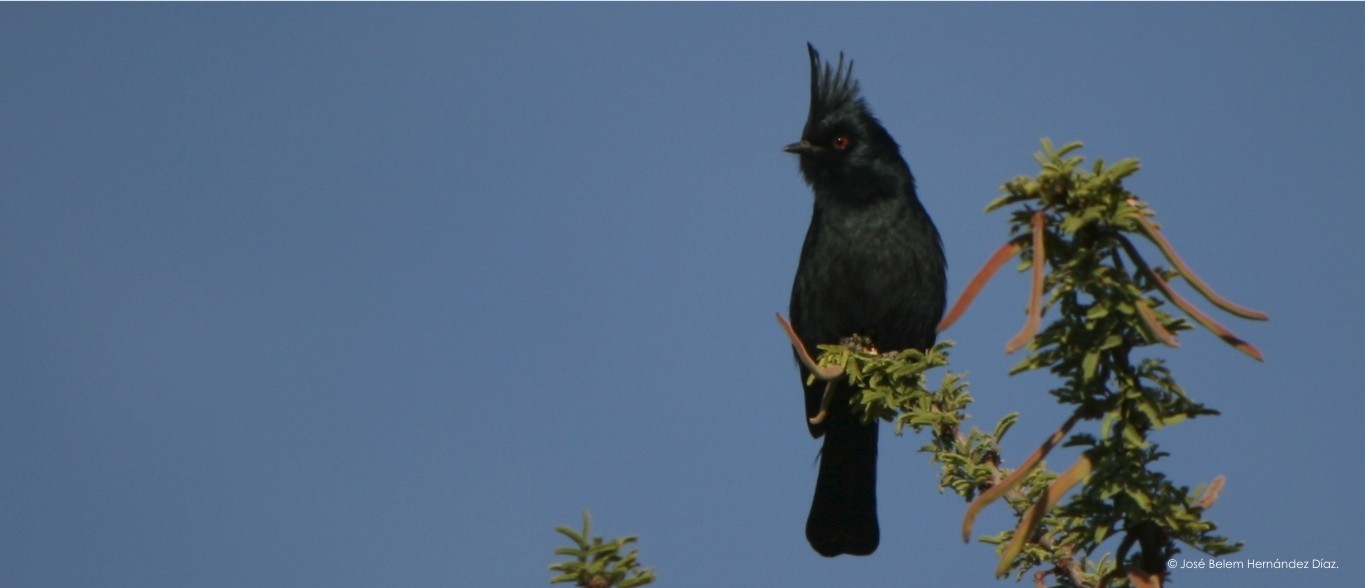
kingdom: Animalia
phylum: Chordata
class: Aves
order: Passeriformes
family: Ptilogonatidae
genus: Phainopepla
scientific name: Phainopepla nitens
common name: Phainopepla
